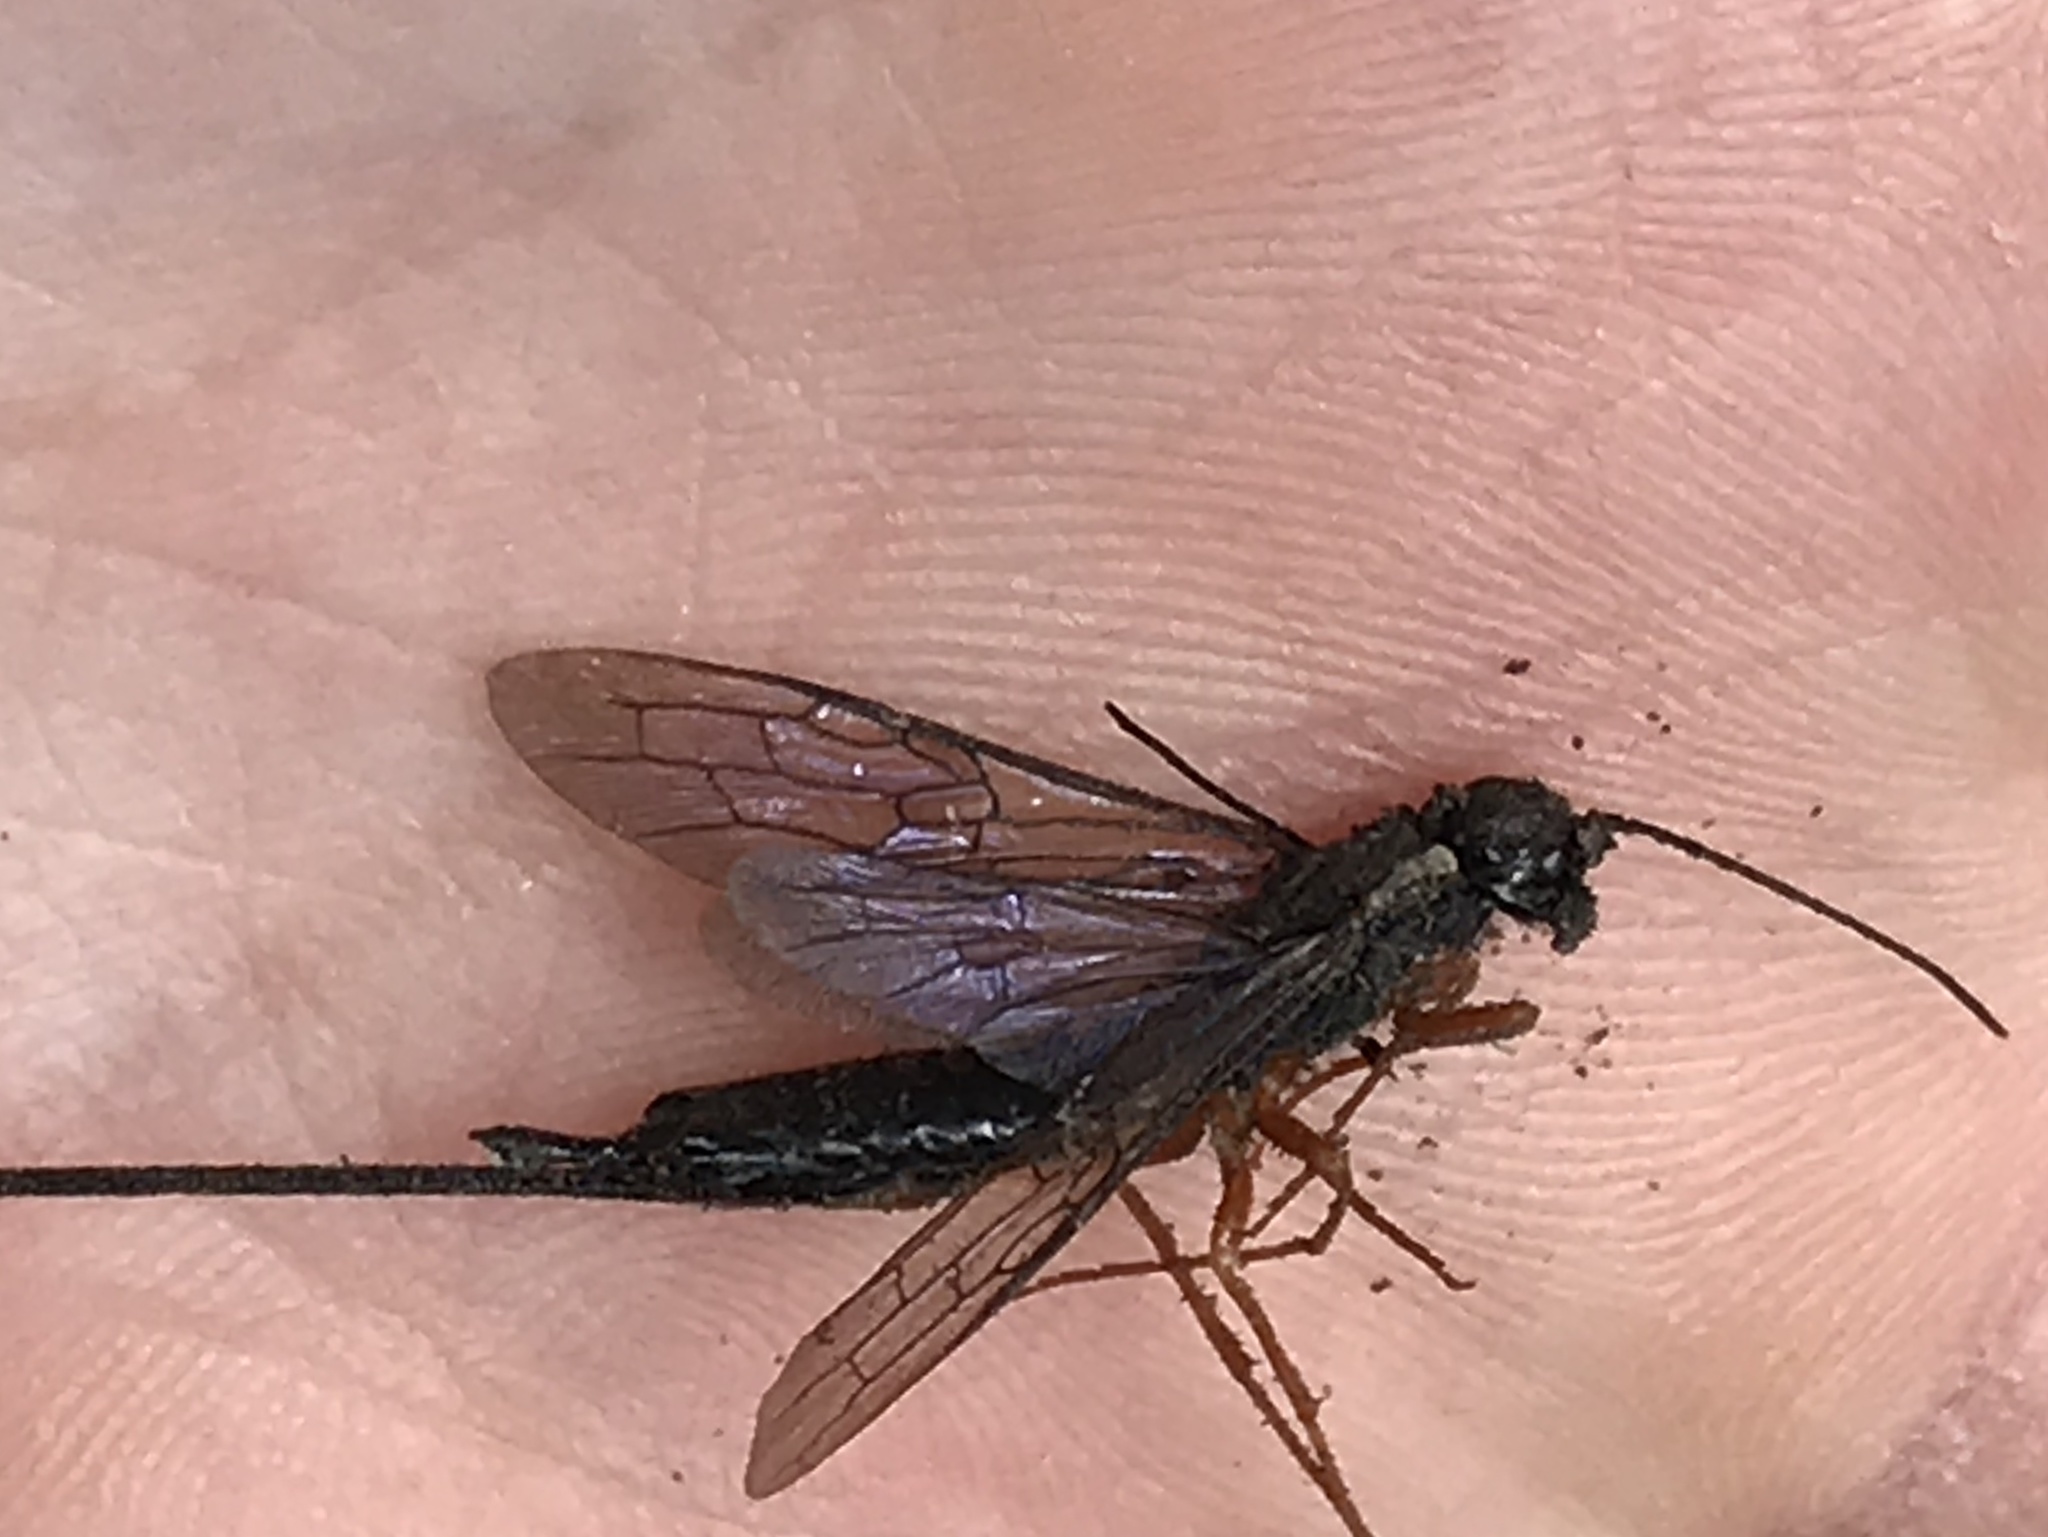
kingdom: Animalia
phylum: Arthropoda
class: Insecta
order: Hymenoptera
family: Siricidae
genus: Xeris
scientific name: Xeris spectrum
